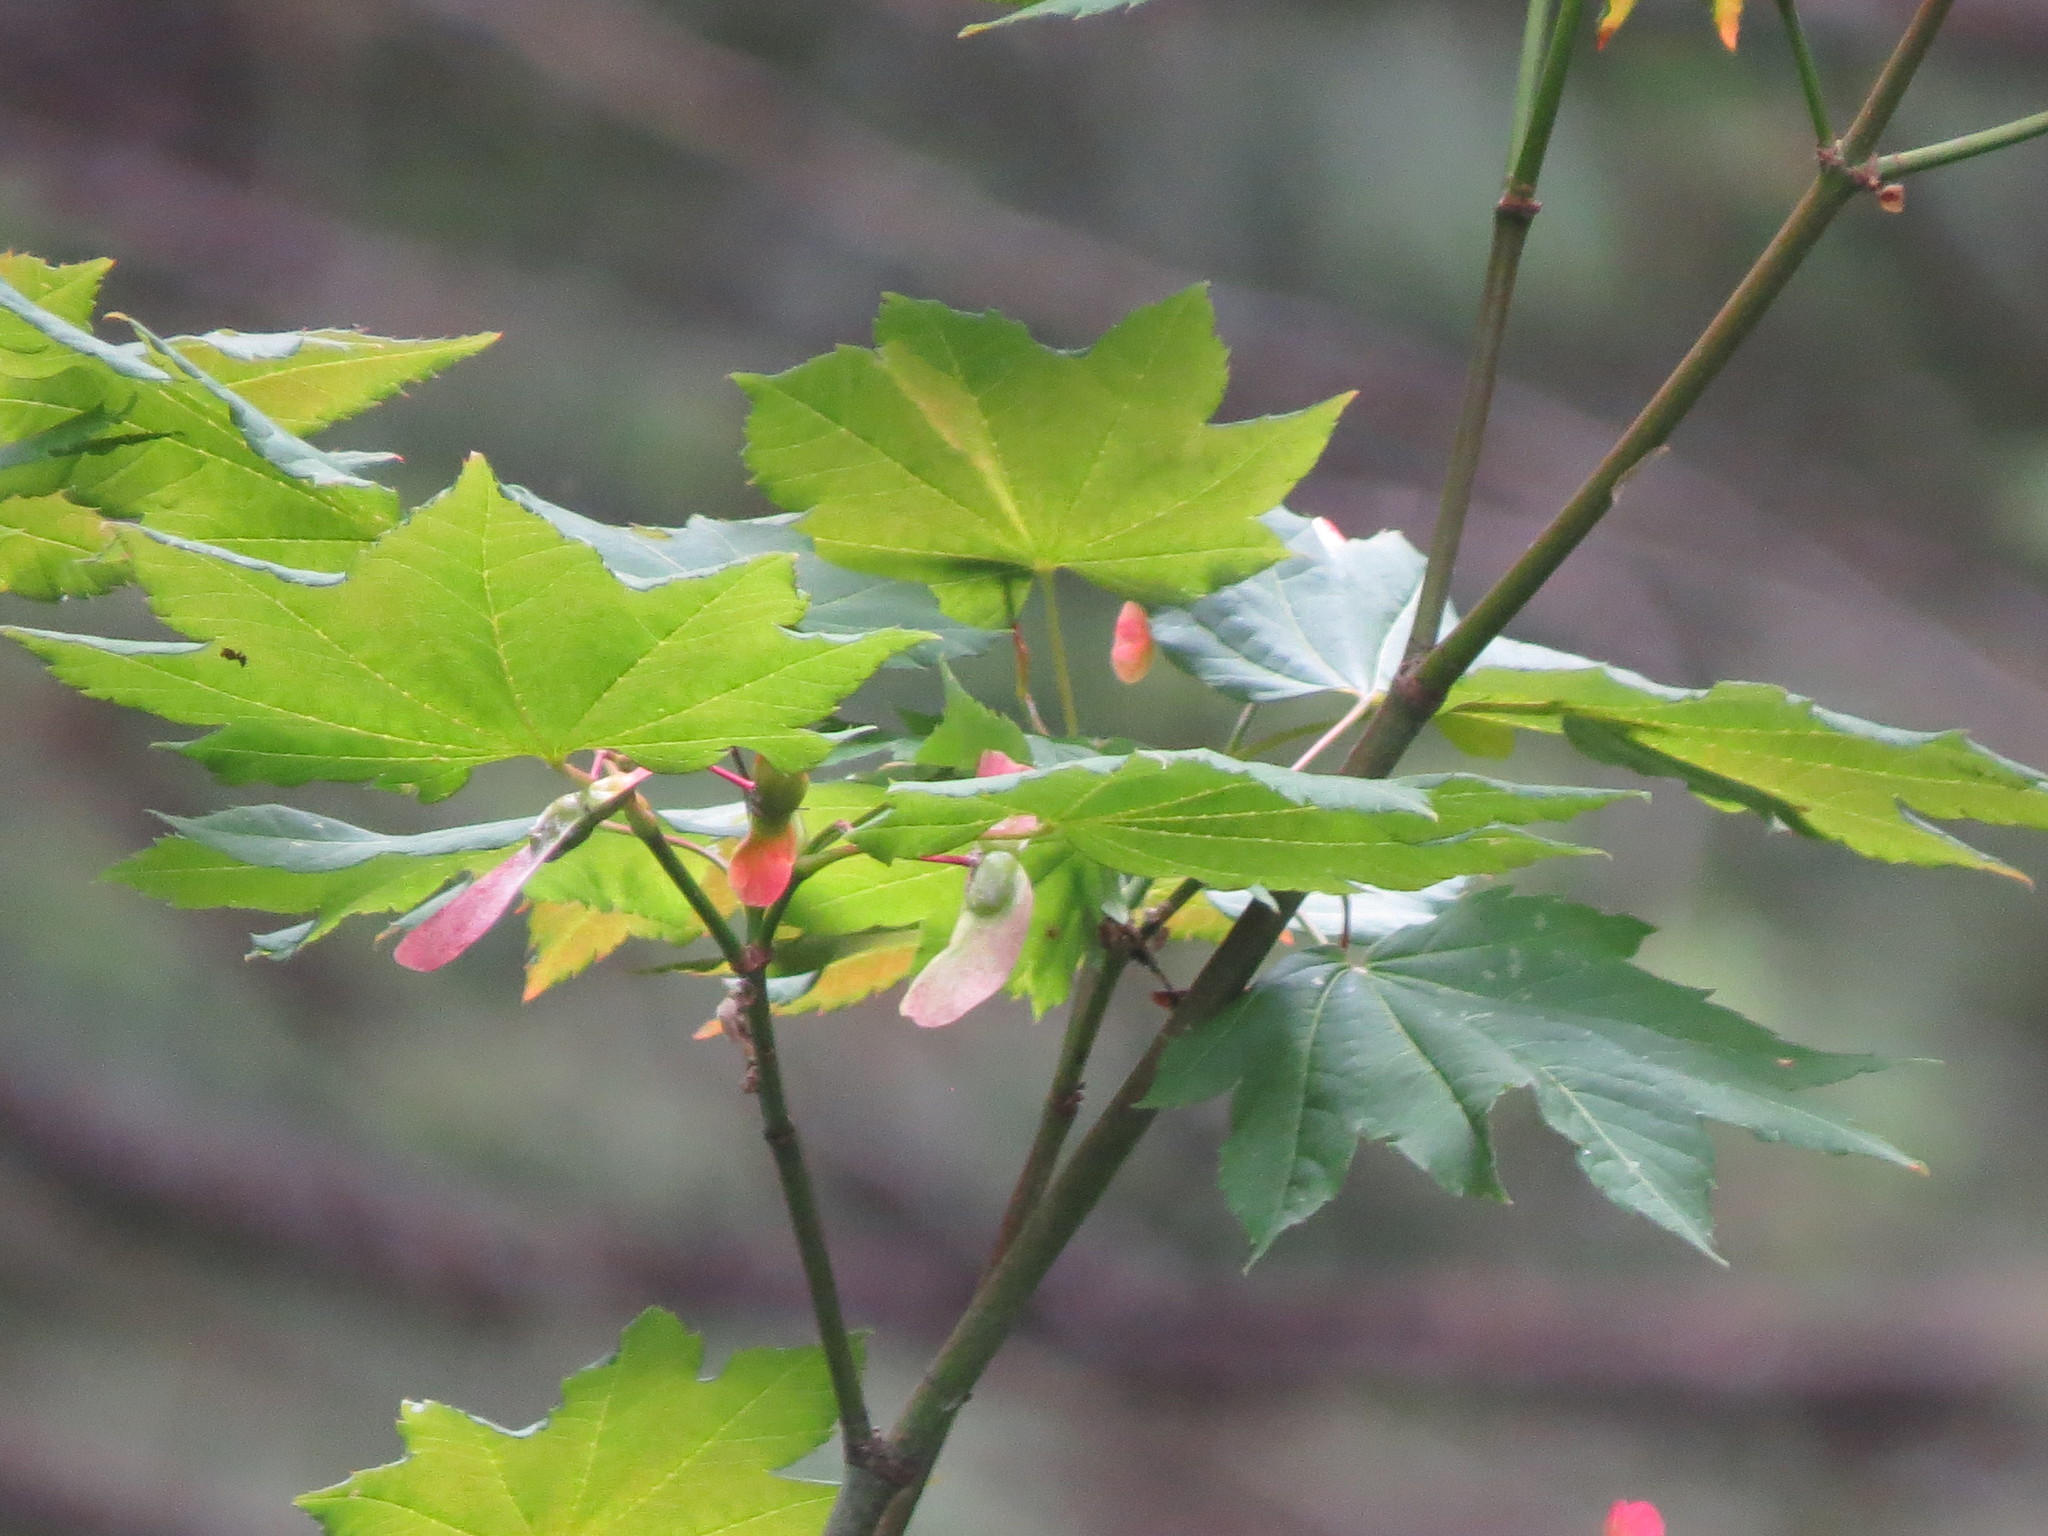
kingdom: Plantae
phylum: Tracheophyta
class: Magnoliopsida
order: Sapindales
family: Sapindaceae
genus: Acer
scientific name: Acer circinatum
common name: Vine maple
